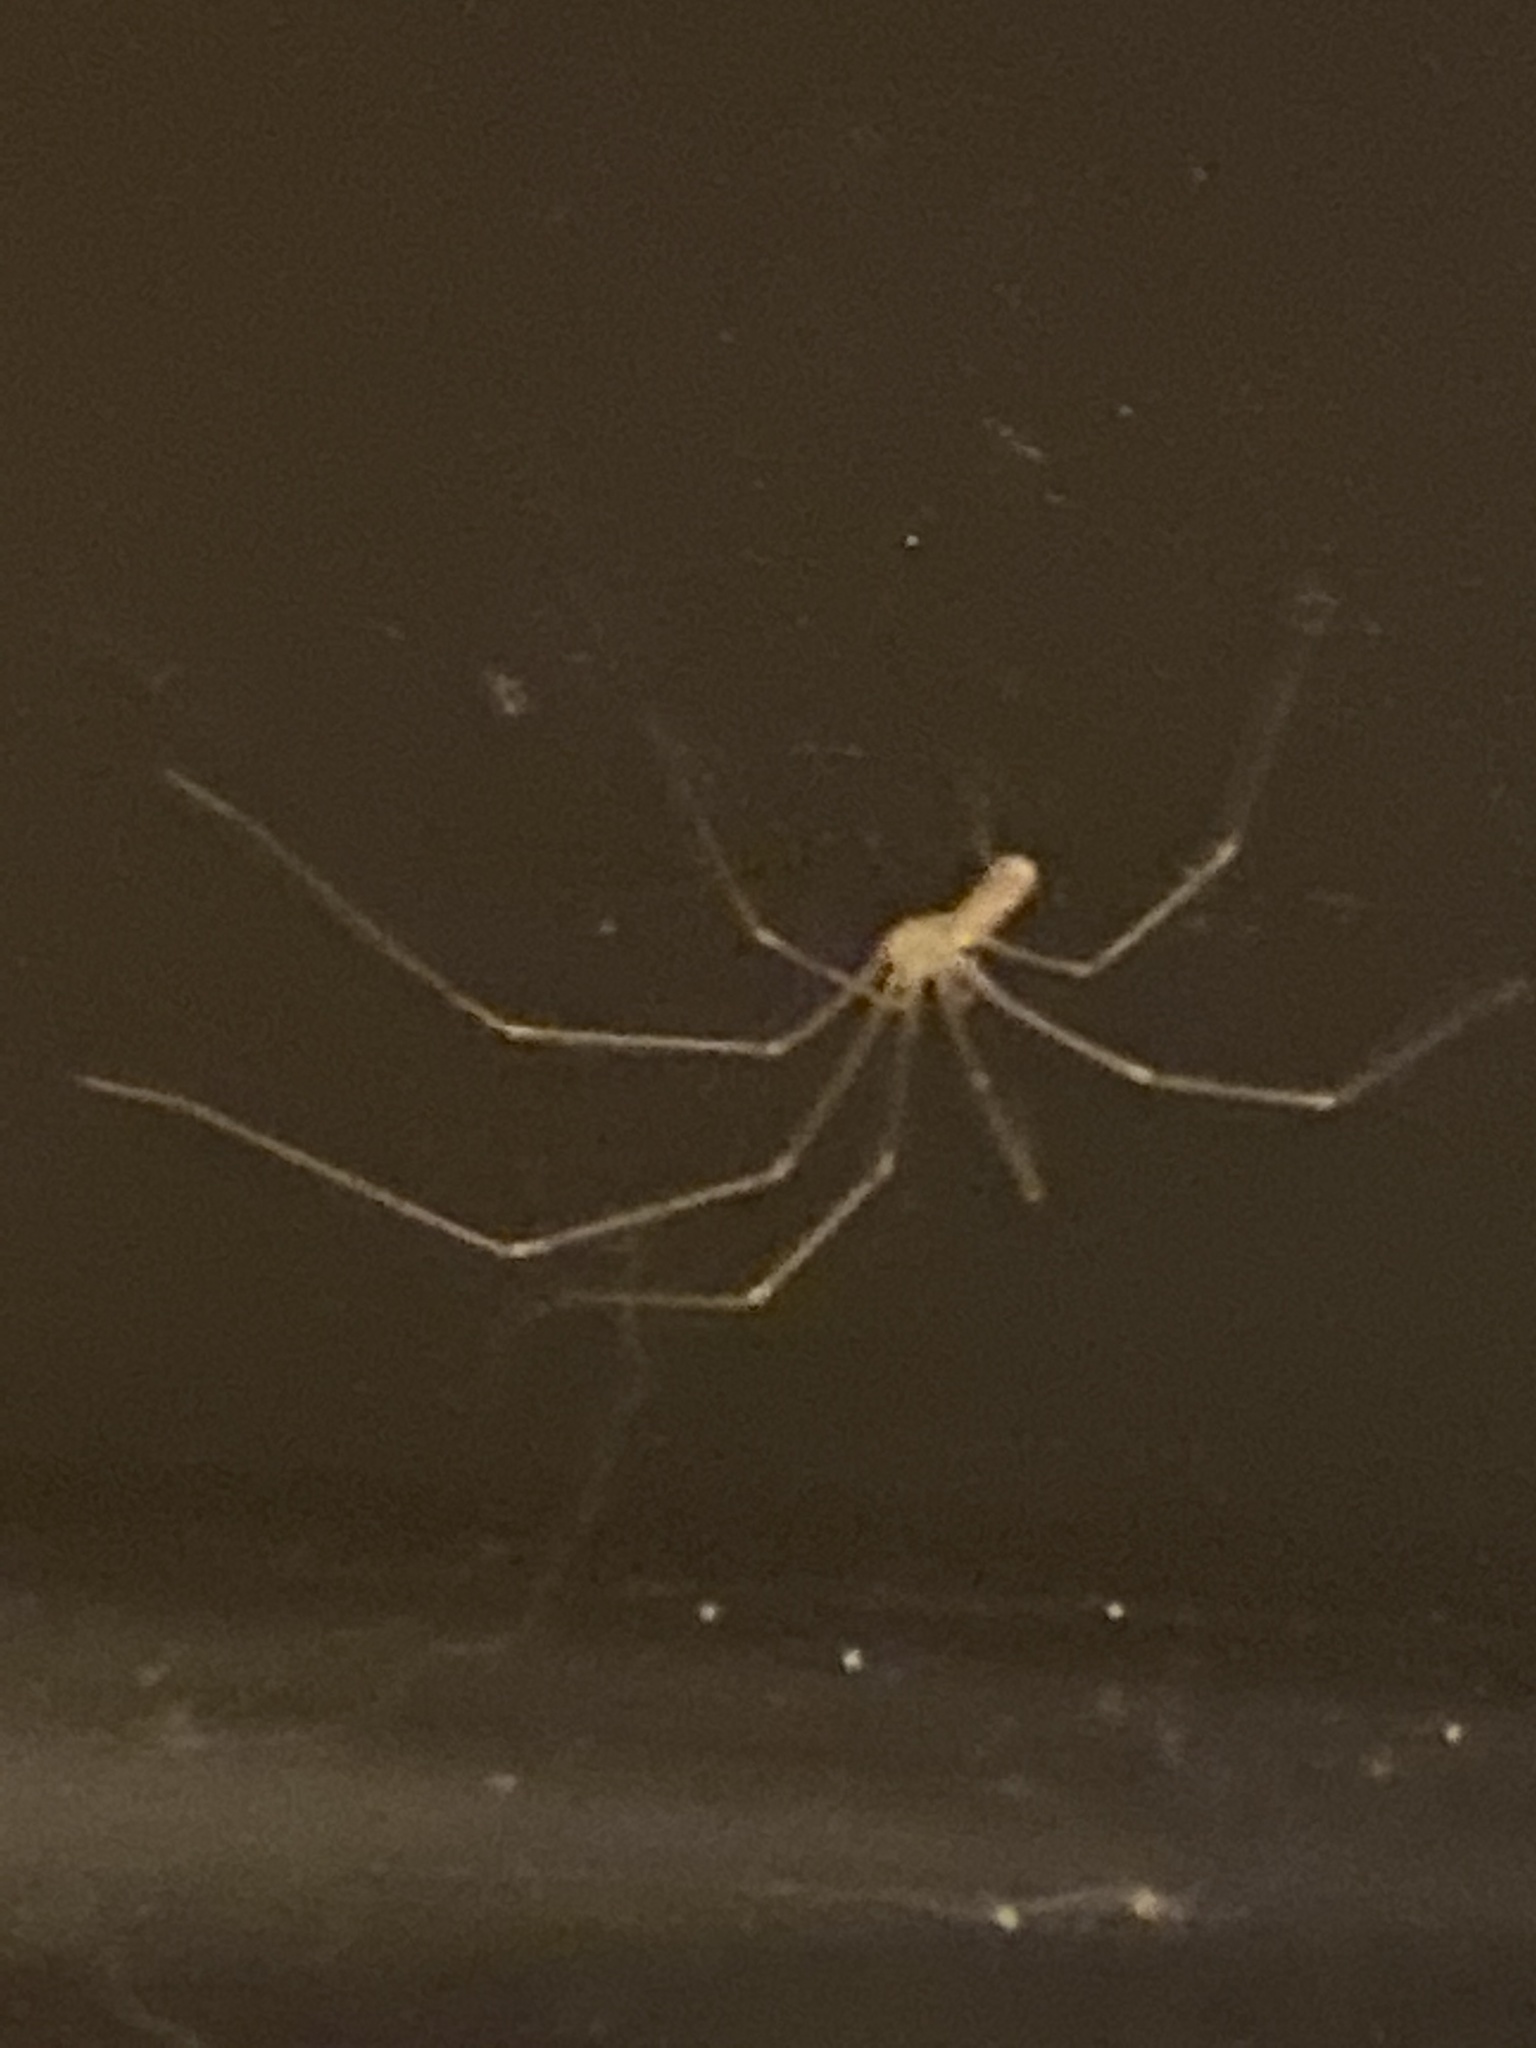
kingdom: Animalia
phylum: Arthropoda
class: Arachnida
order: Araneae
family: Pholcidae
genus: Pholcus
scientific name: Pholcus phalangioides
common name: Longbodied cellar spider
